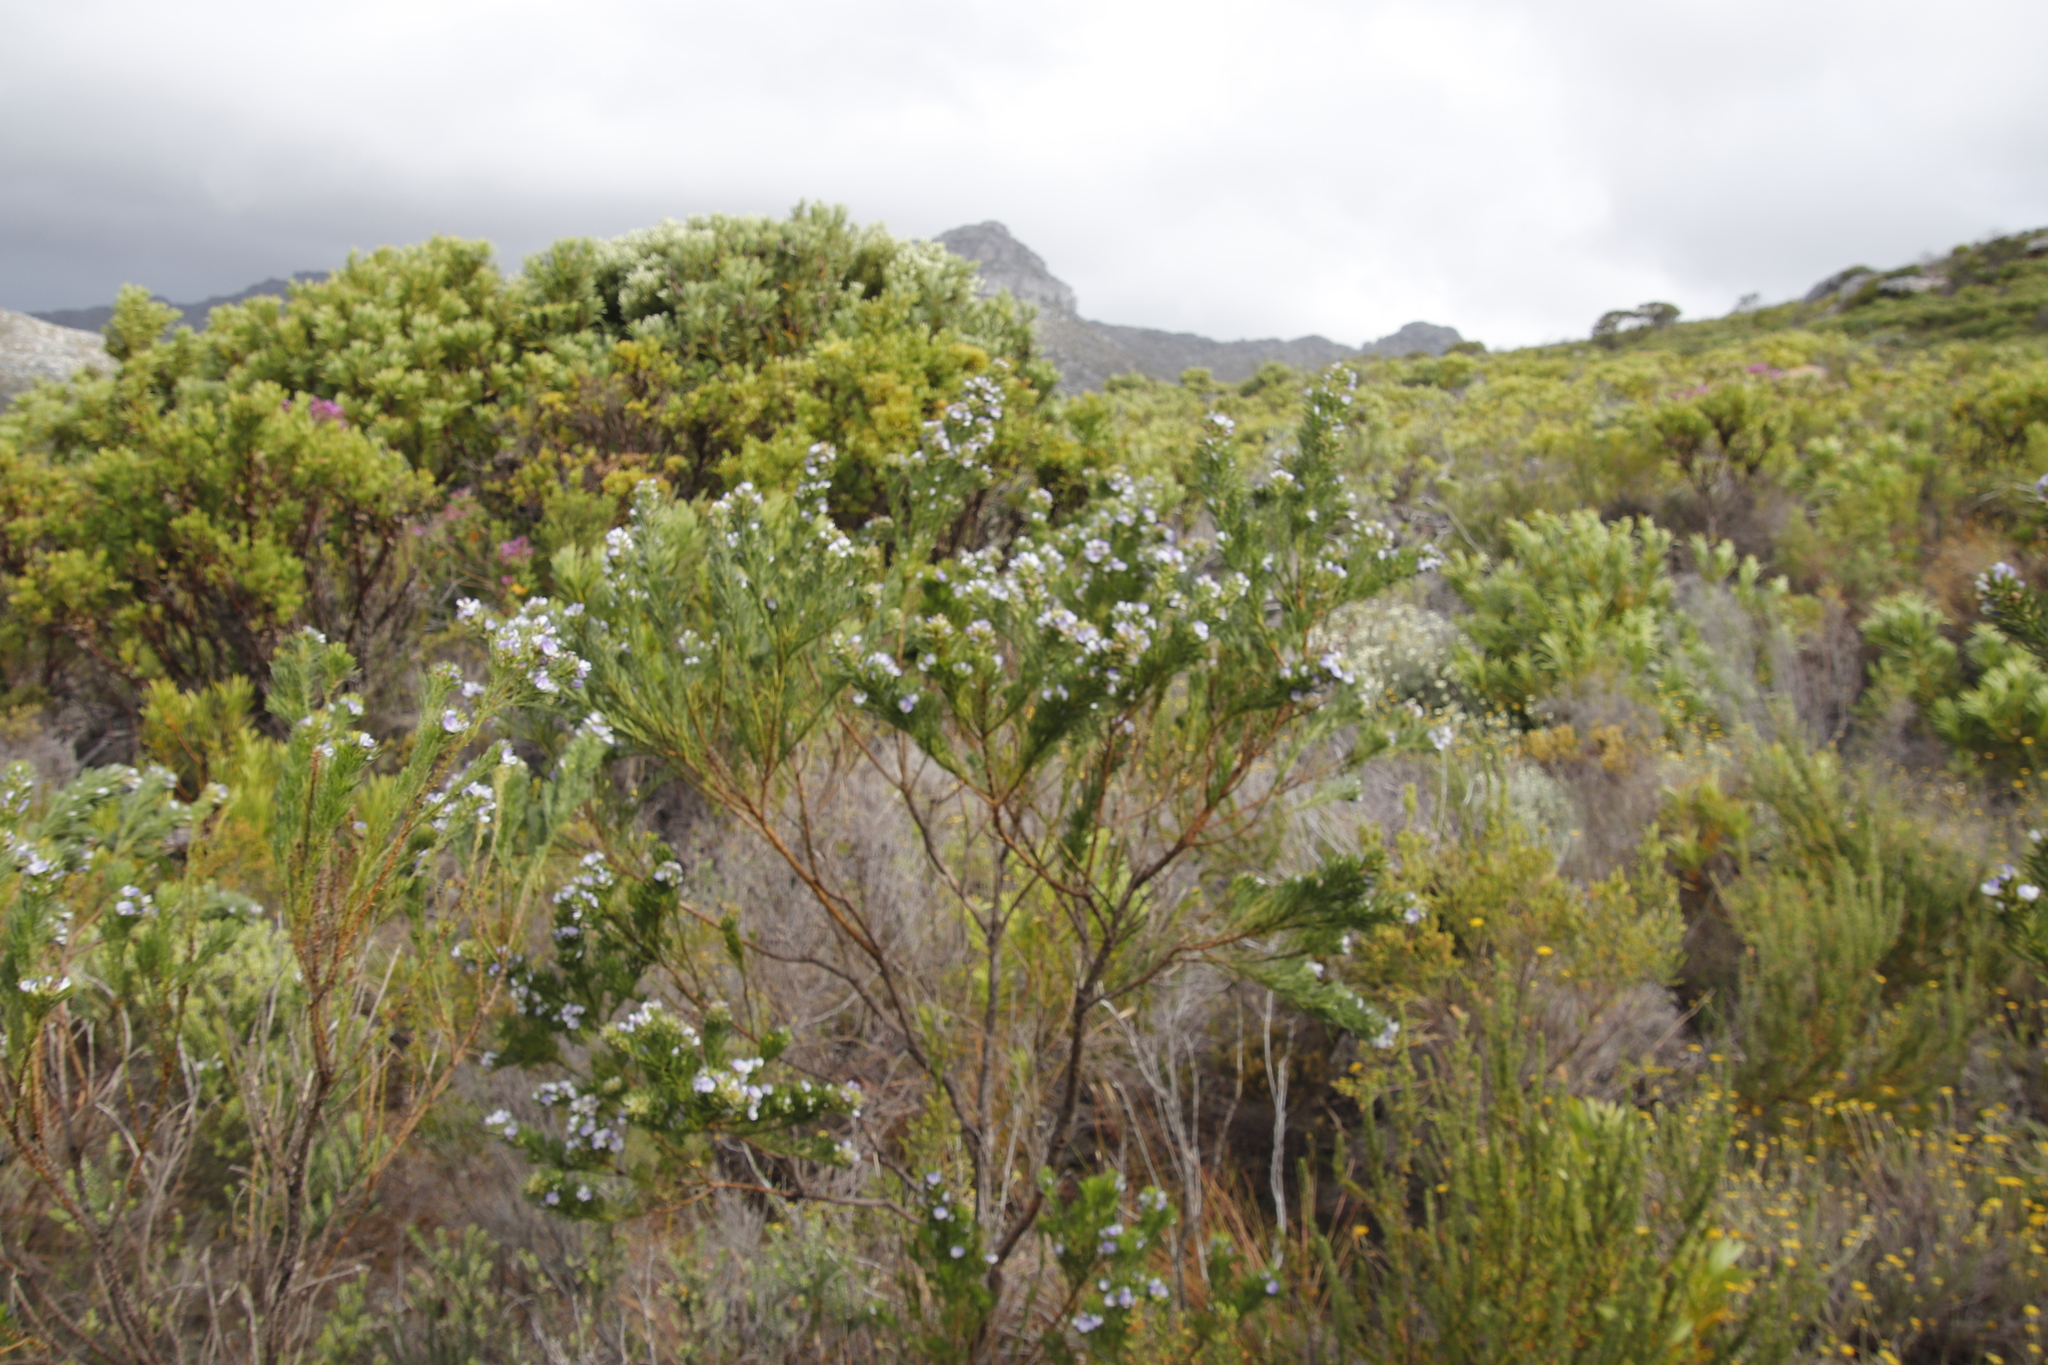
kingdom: Plantae
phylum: Tracheophyta
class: Magnoliopsida
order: Fabales
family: Fabaceae
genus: Psoralea
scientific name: Psoralea pinnata
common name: African scurfpea
